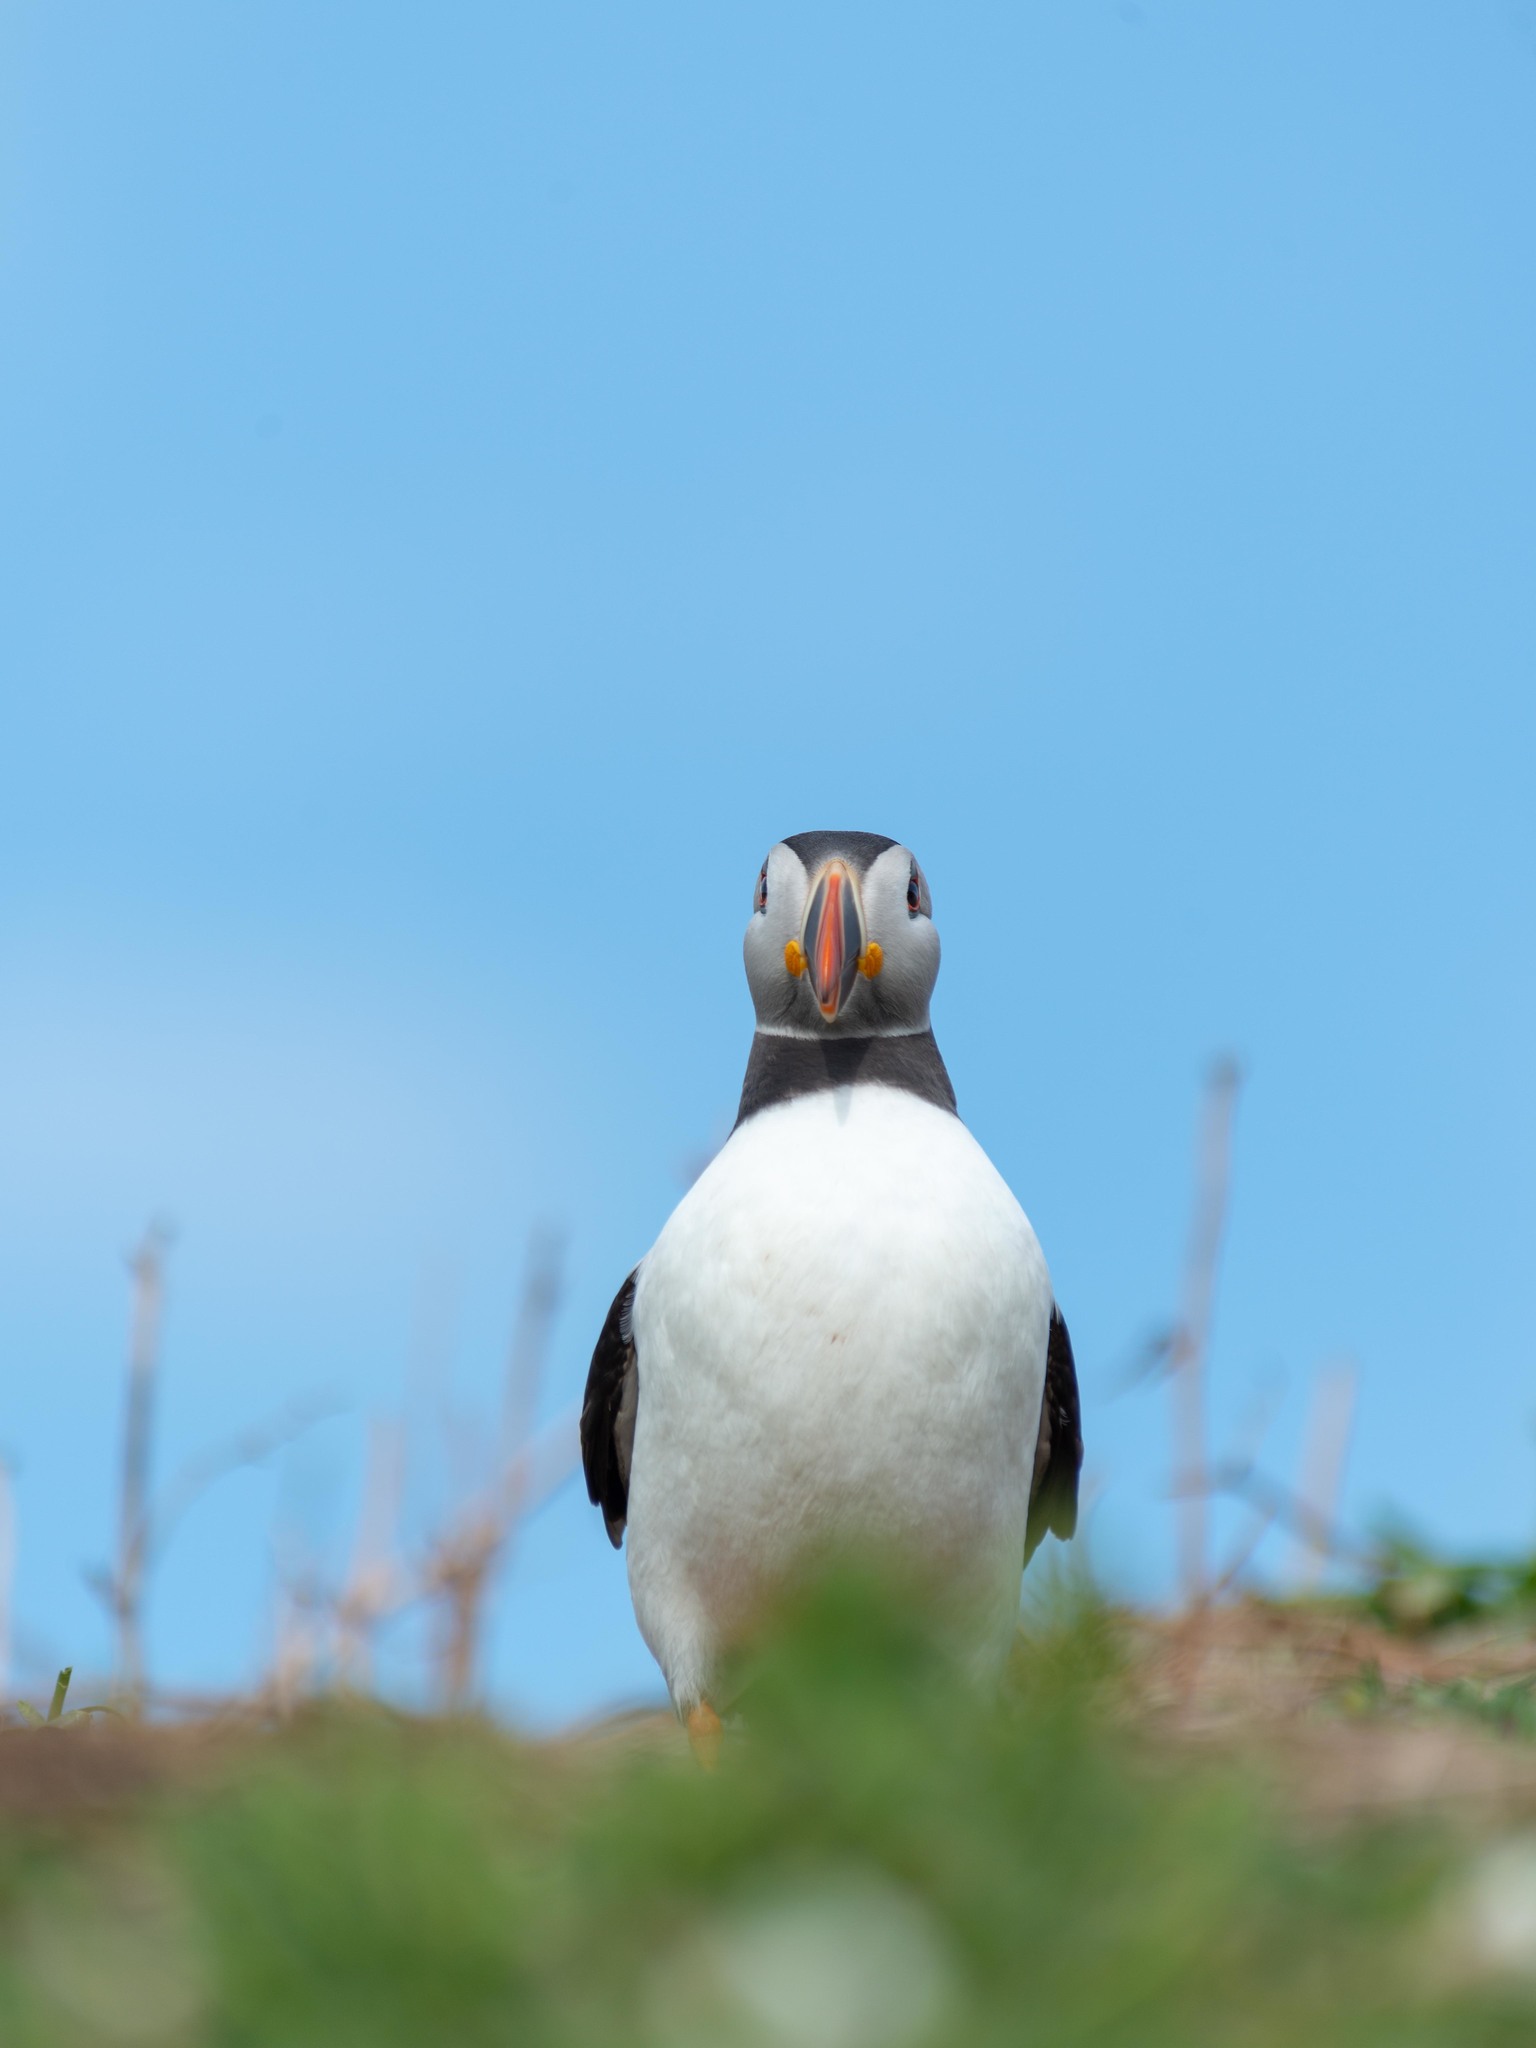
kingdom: Animalia
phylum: Chordata
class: Aves
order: Charadriiformes
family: Alcidae
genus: Fratercula
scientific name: Fratercula arctica
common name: Atlantic puffin
